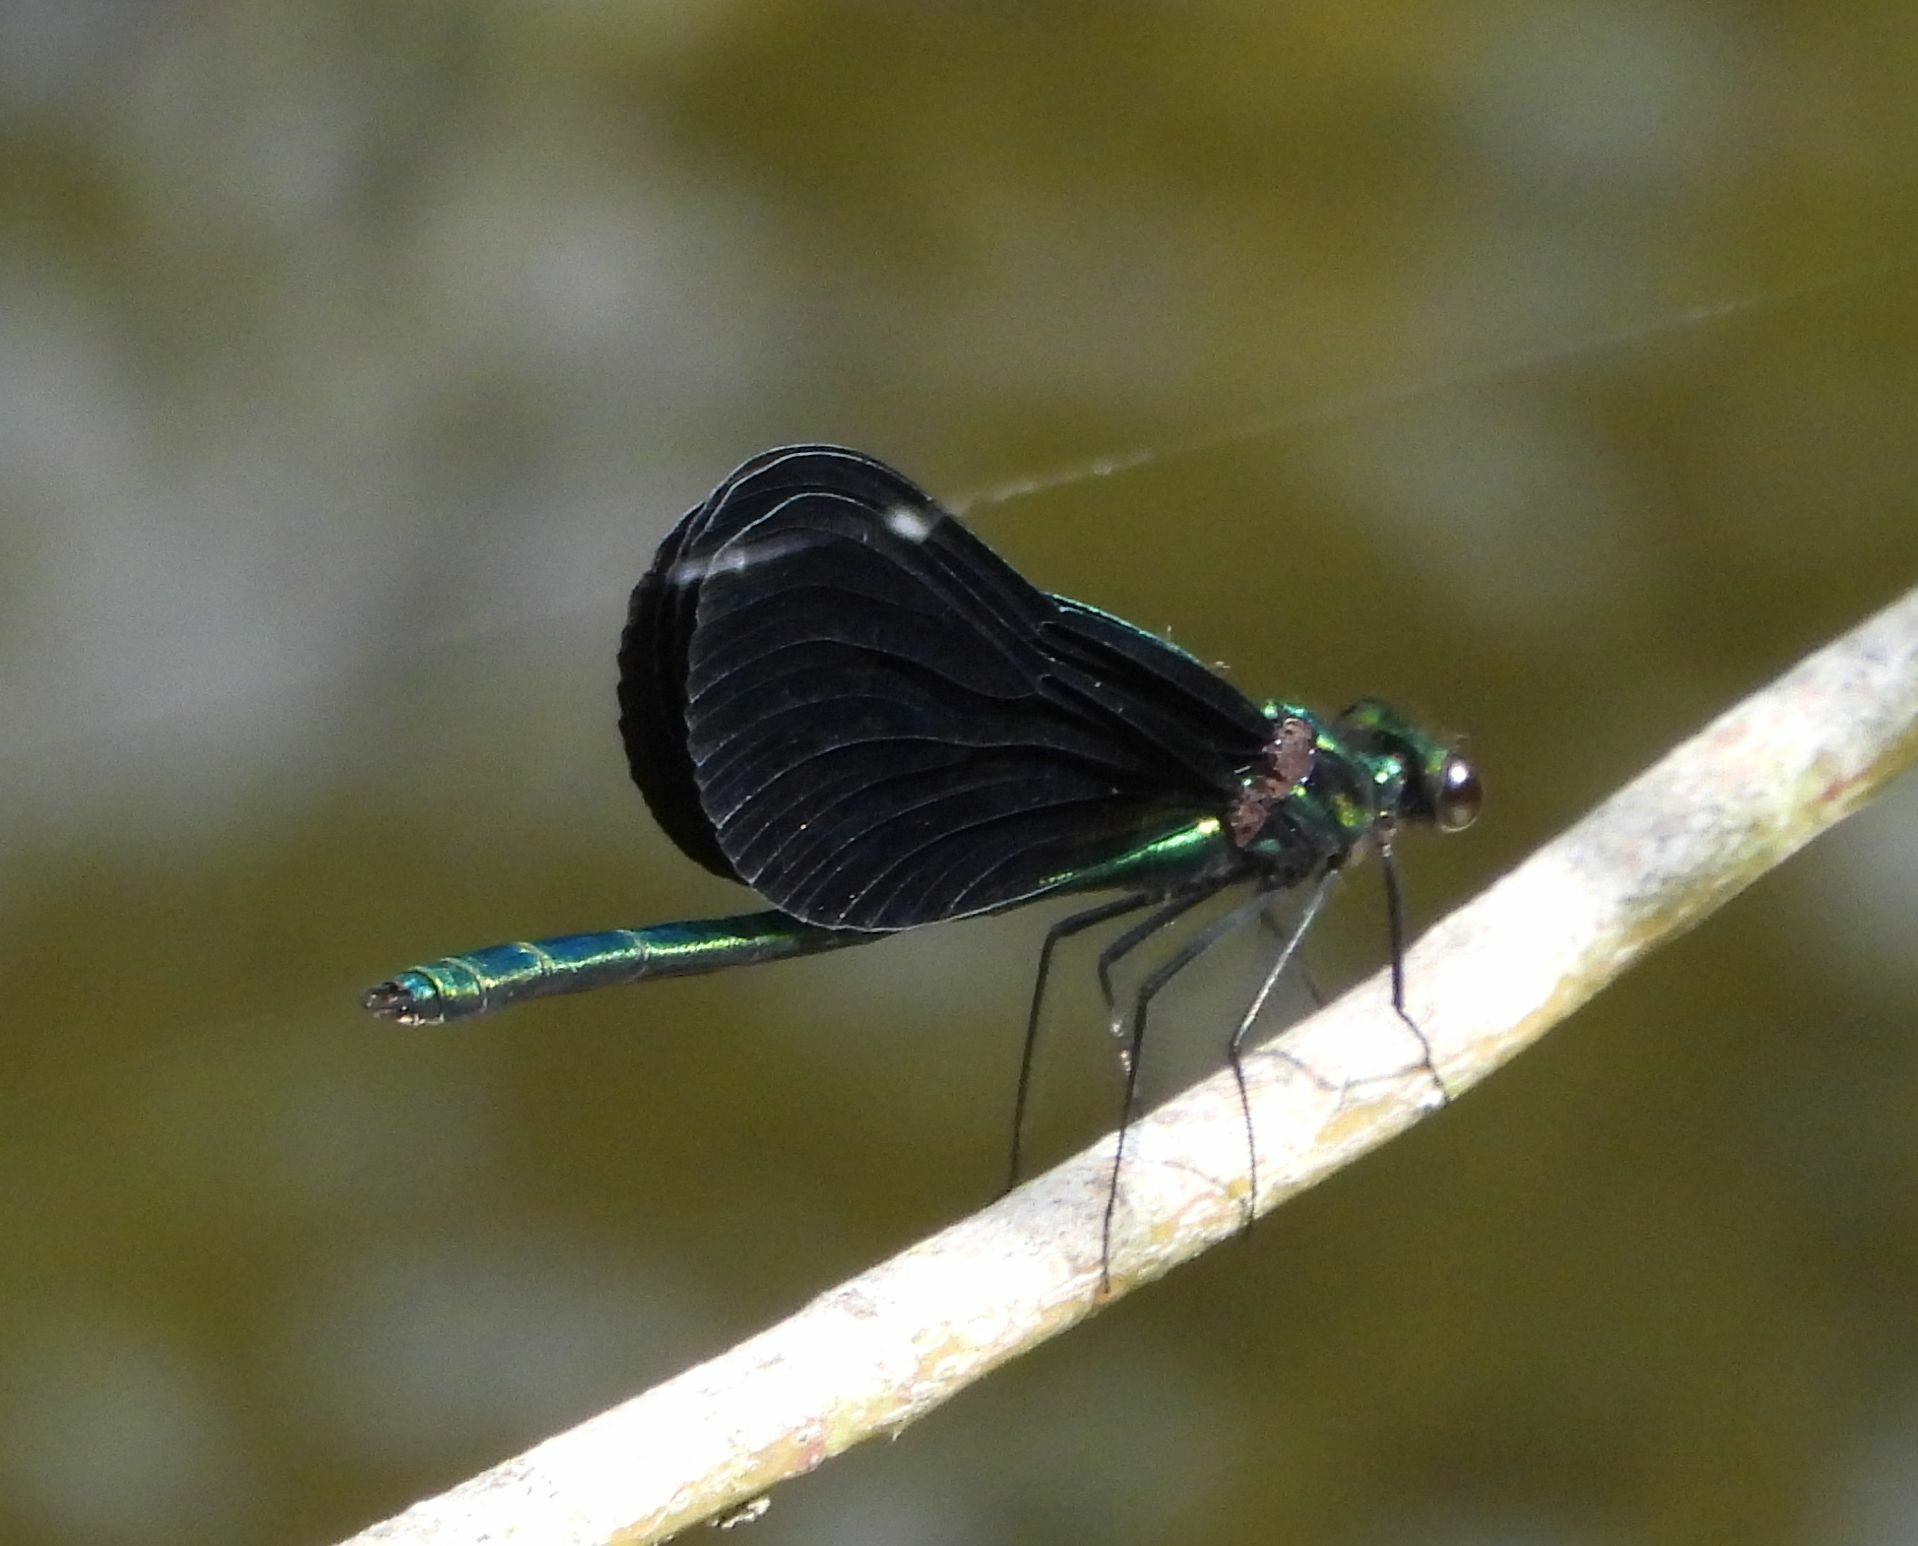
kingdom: Animalia
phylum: Arthropoda
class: Insecta
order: Odonata
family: Calopterygidae
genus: Calopteryx
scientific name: Calopteryx maculata
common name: Ebony jewelwing
